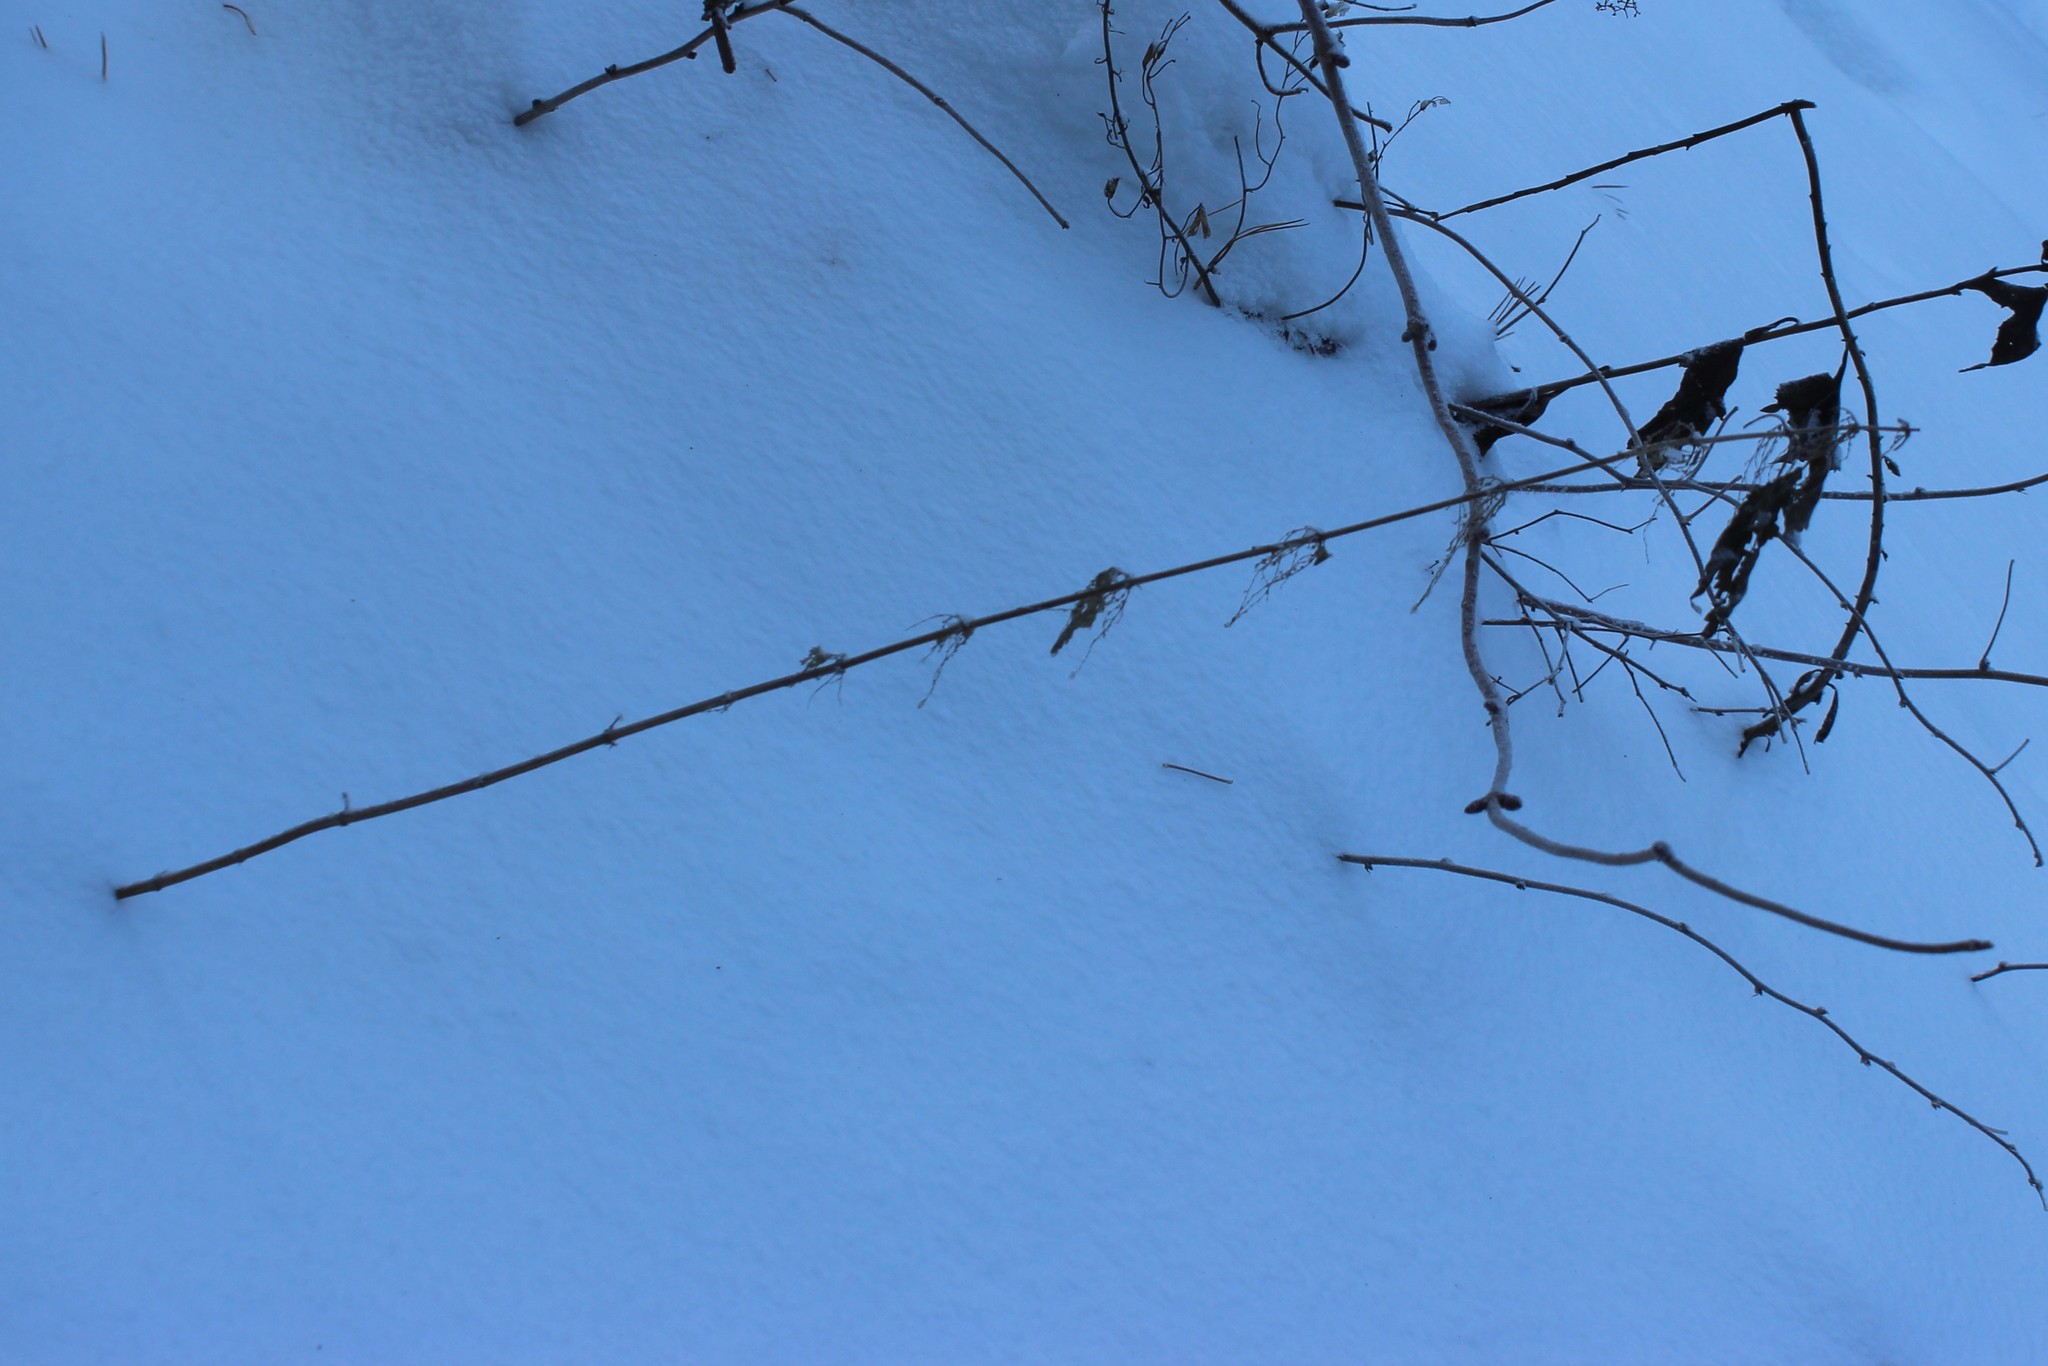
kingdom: Plantae
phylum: Tracheophyta
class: Magnoliopsida
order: Rosales
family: Urticaceae
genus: Urtica
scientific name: Urtica dioica
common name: Common nettle
